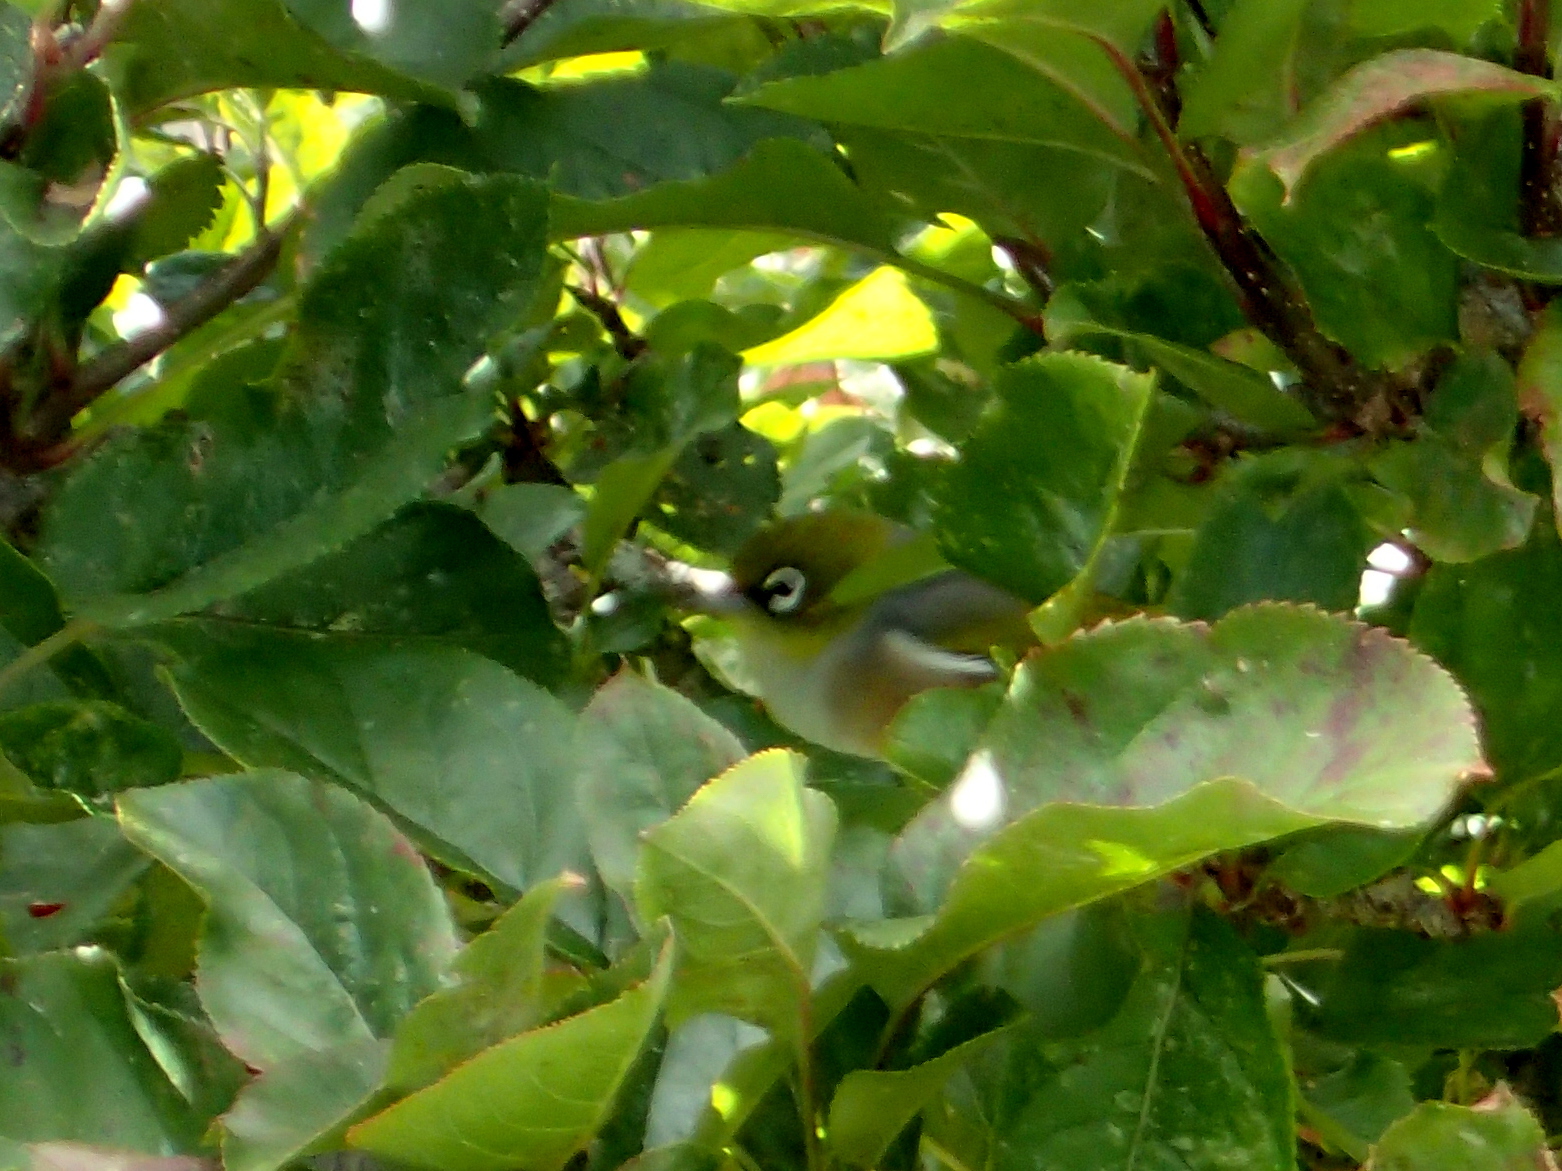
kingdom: Animalia
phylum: Chordata
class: Aves
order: Passeriformes
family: Zosteropidae
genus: Zosterops
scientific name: Zosterops lateralis
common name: Silvereye
